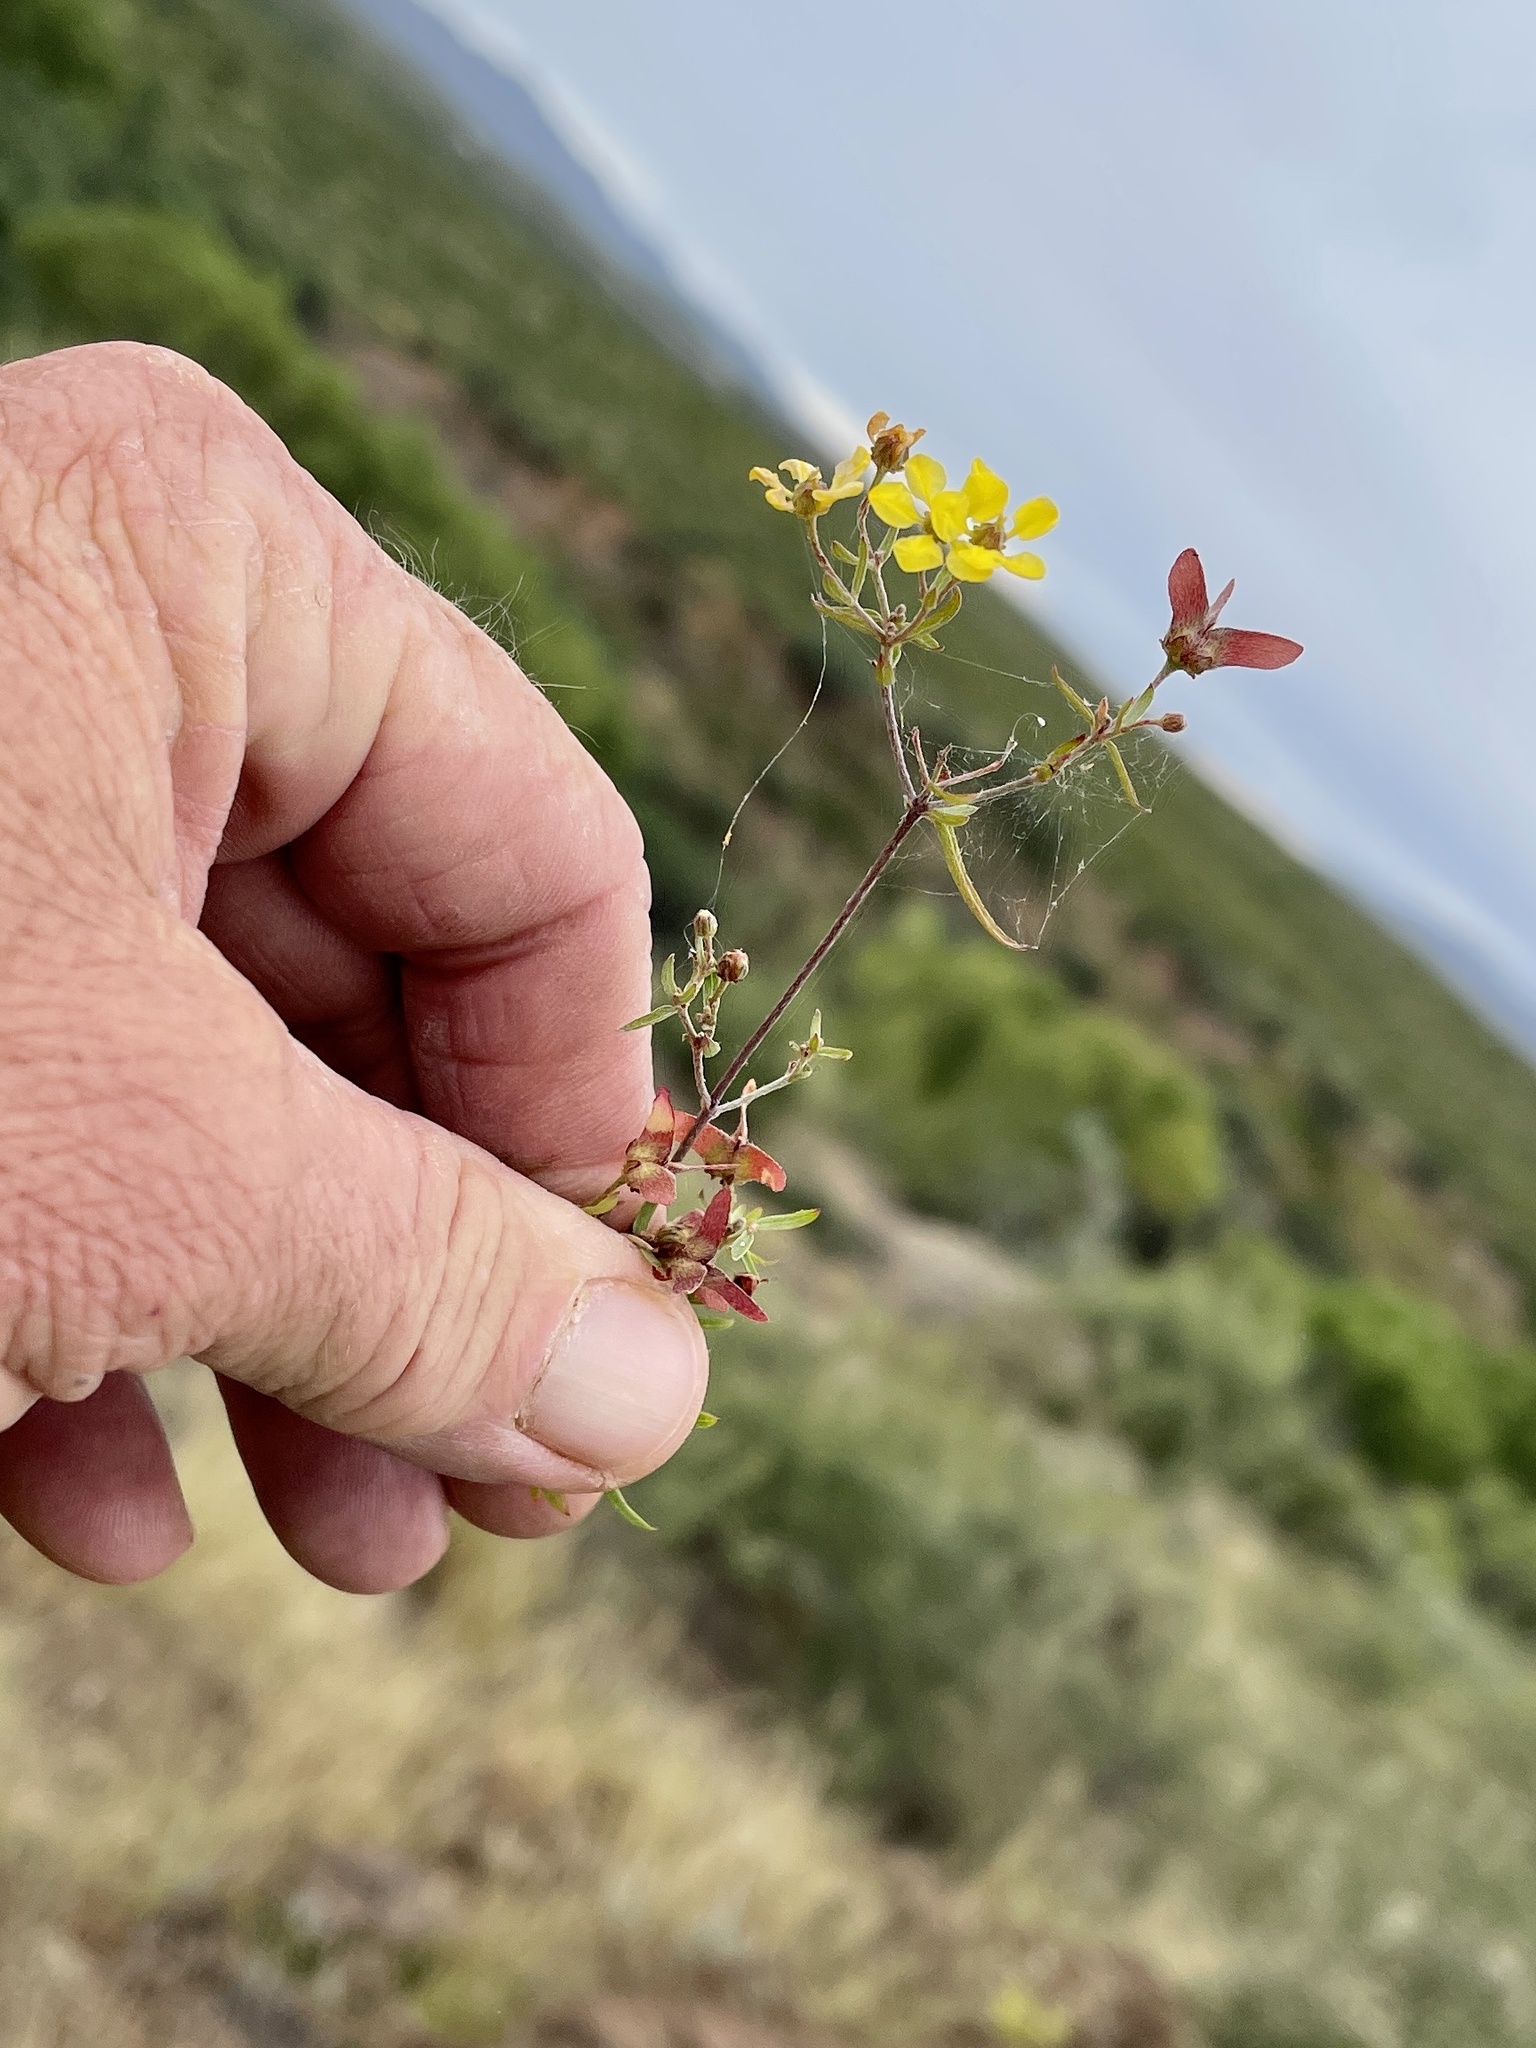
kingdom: Plantae
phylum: Tracheophyta
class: Magnoliopsida
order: Malpighiales
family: Malpighiaceae
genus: Cottsia
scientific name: Cottsia gracilis
